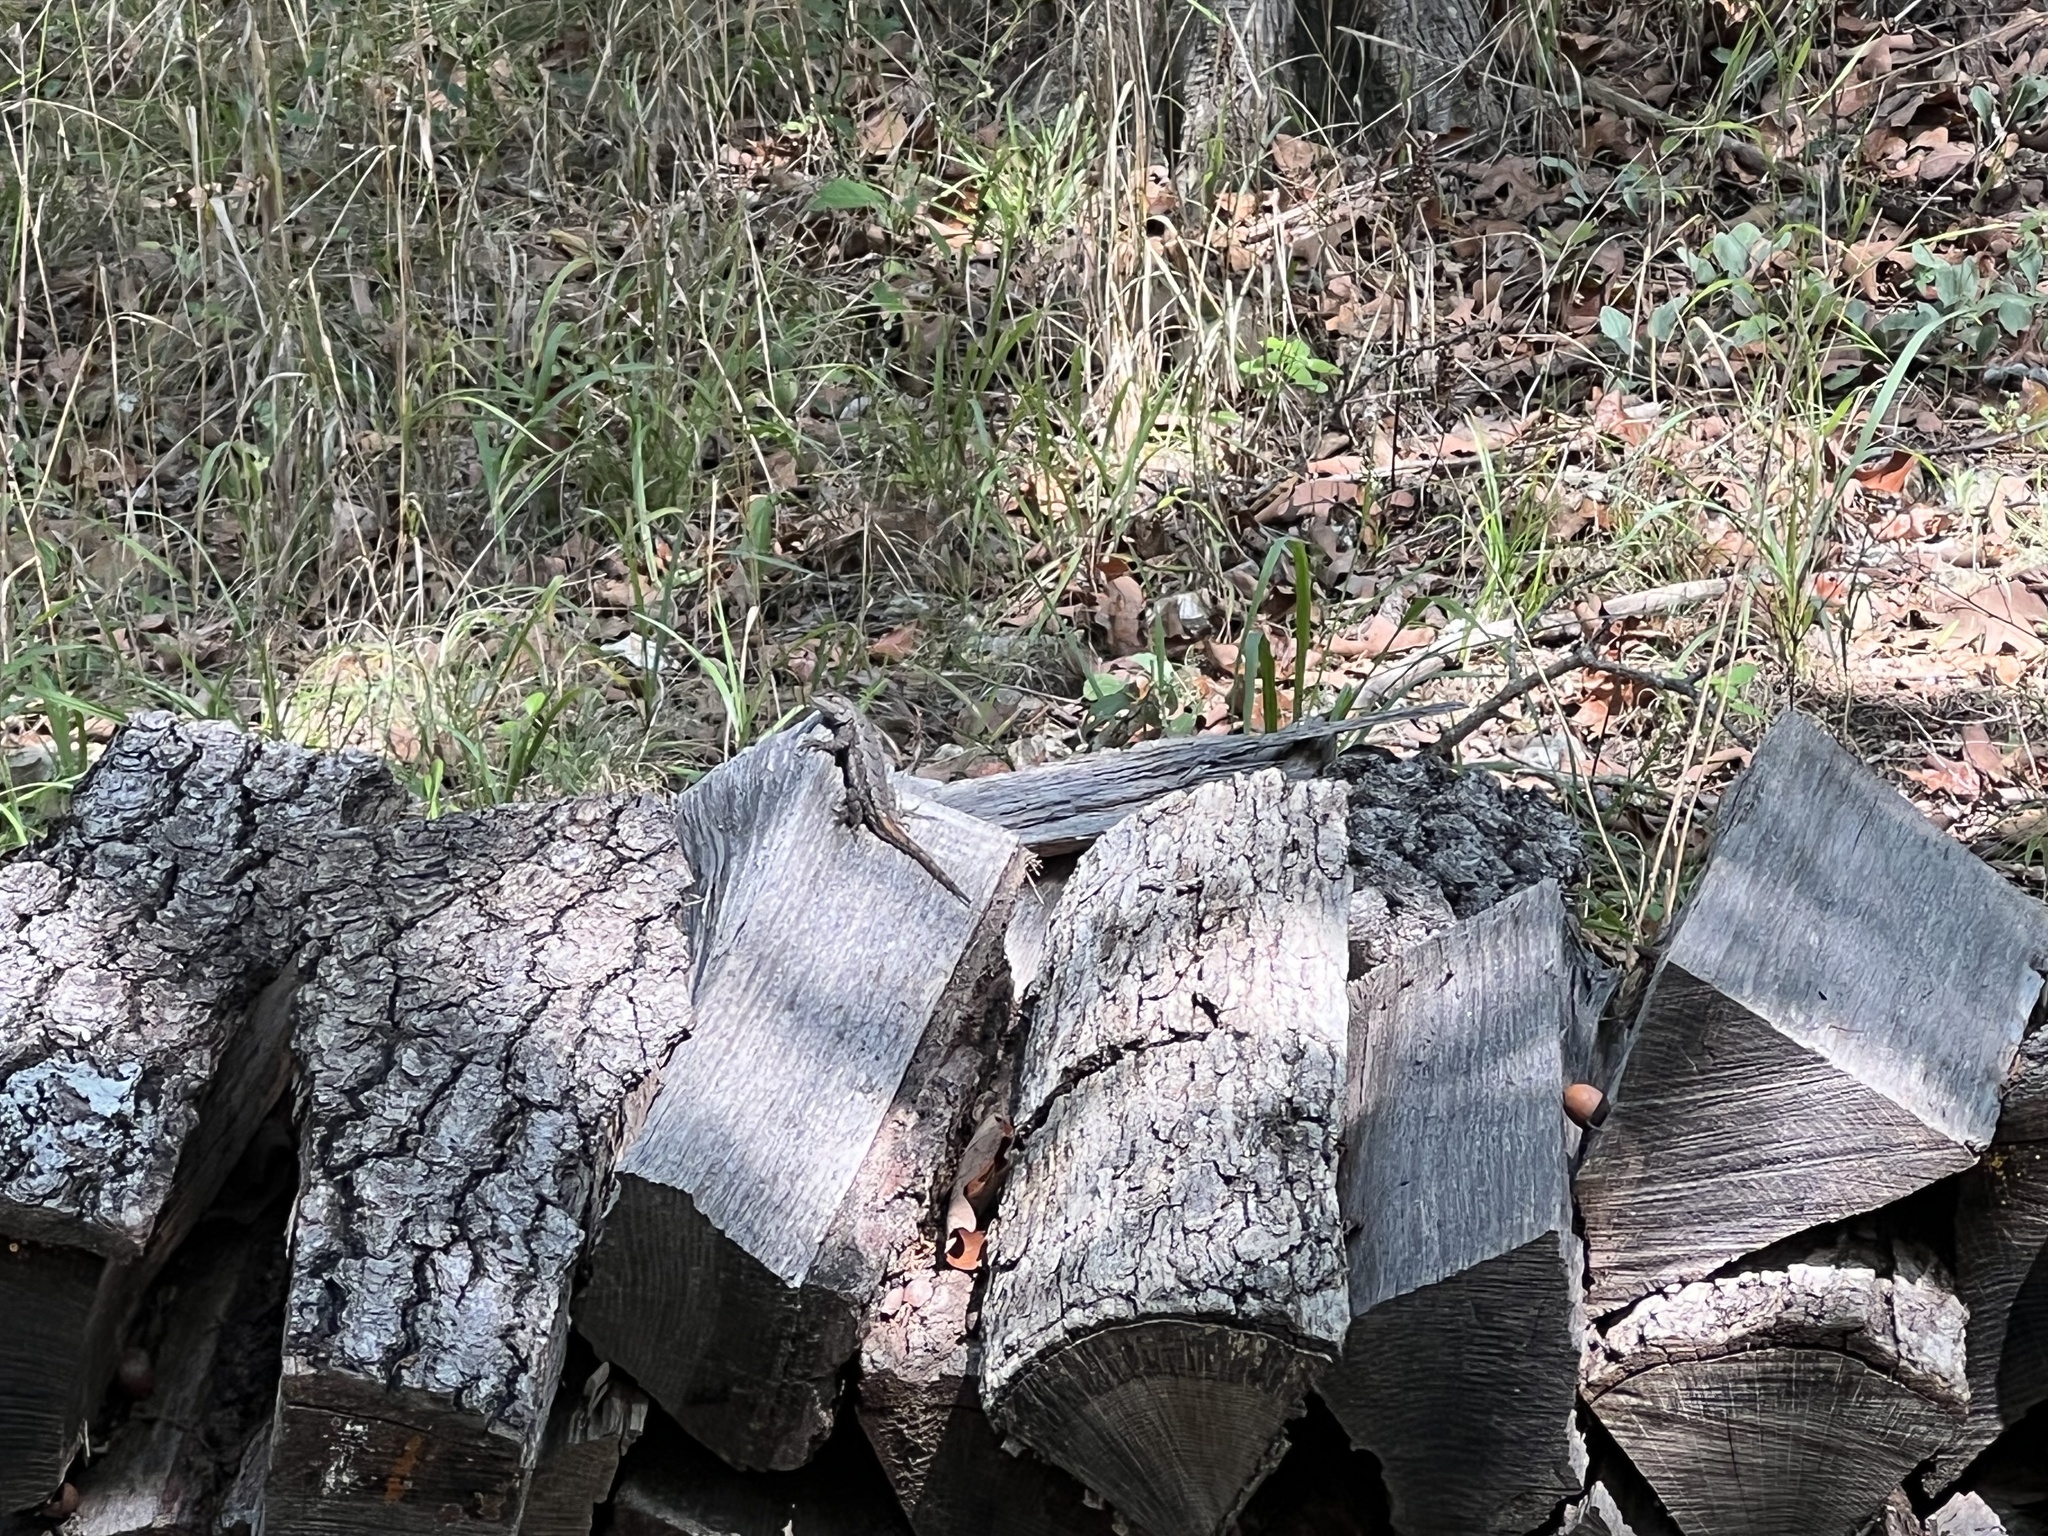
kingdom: Animalia
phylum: Chordata
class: Squamata
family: Phrynosomatidae
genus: Sceloporus
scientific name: Sceloporus consobrinus
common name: Southern prairie lizard
